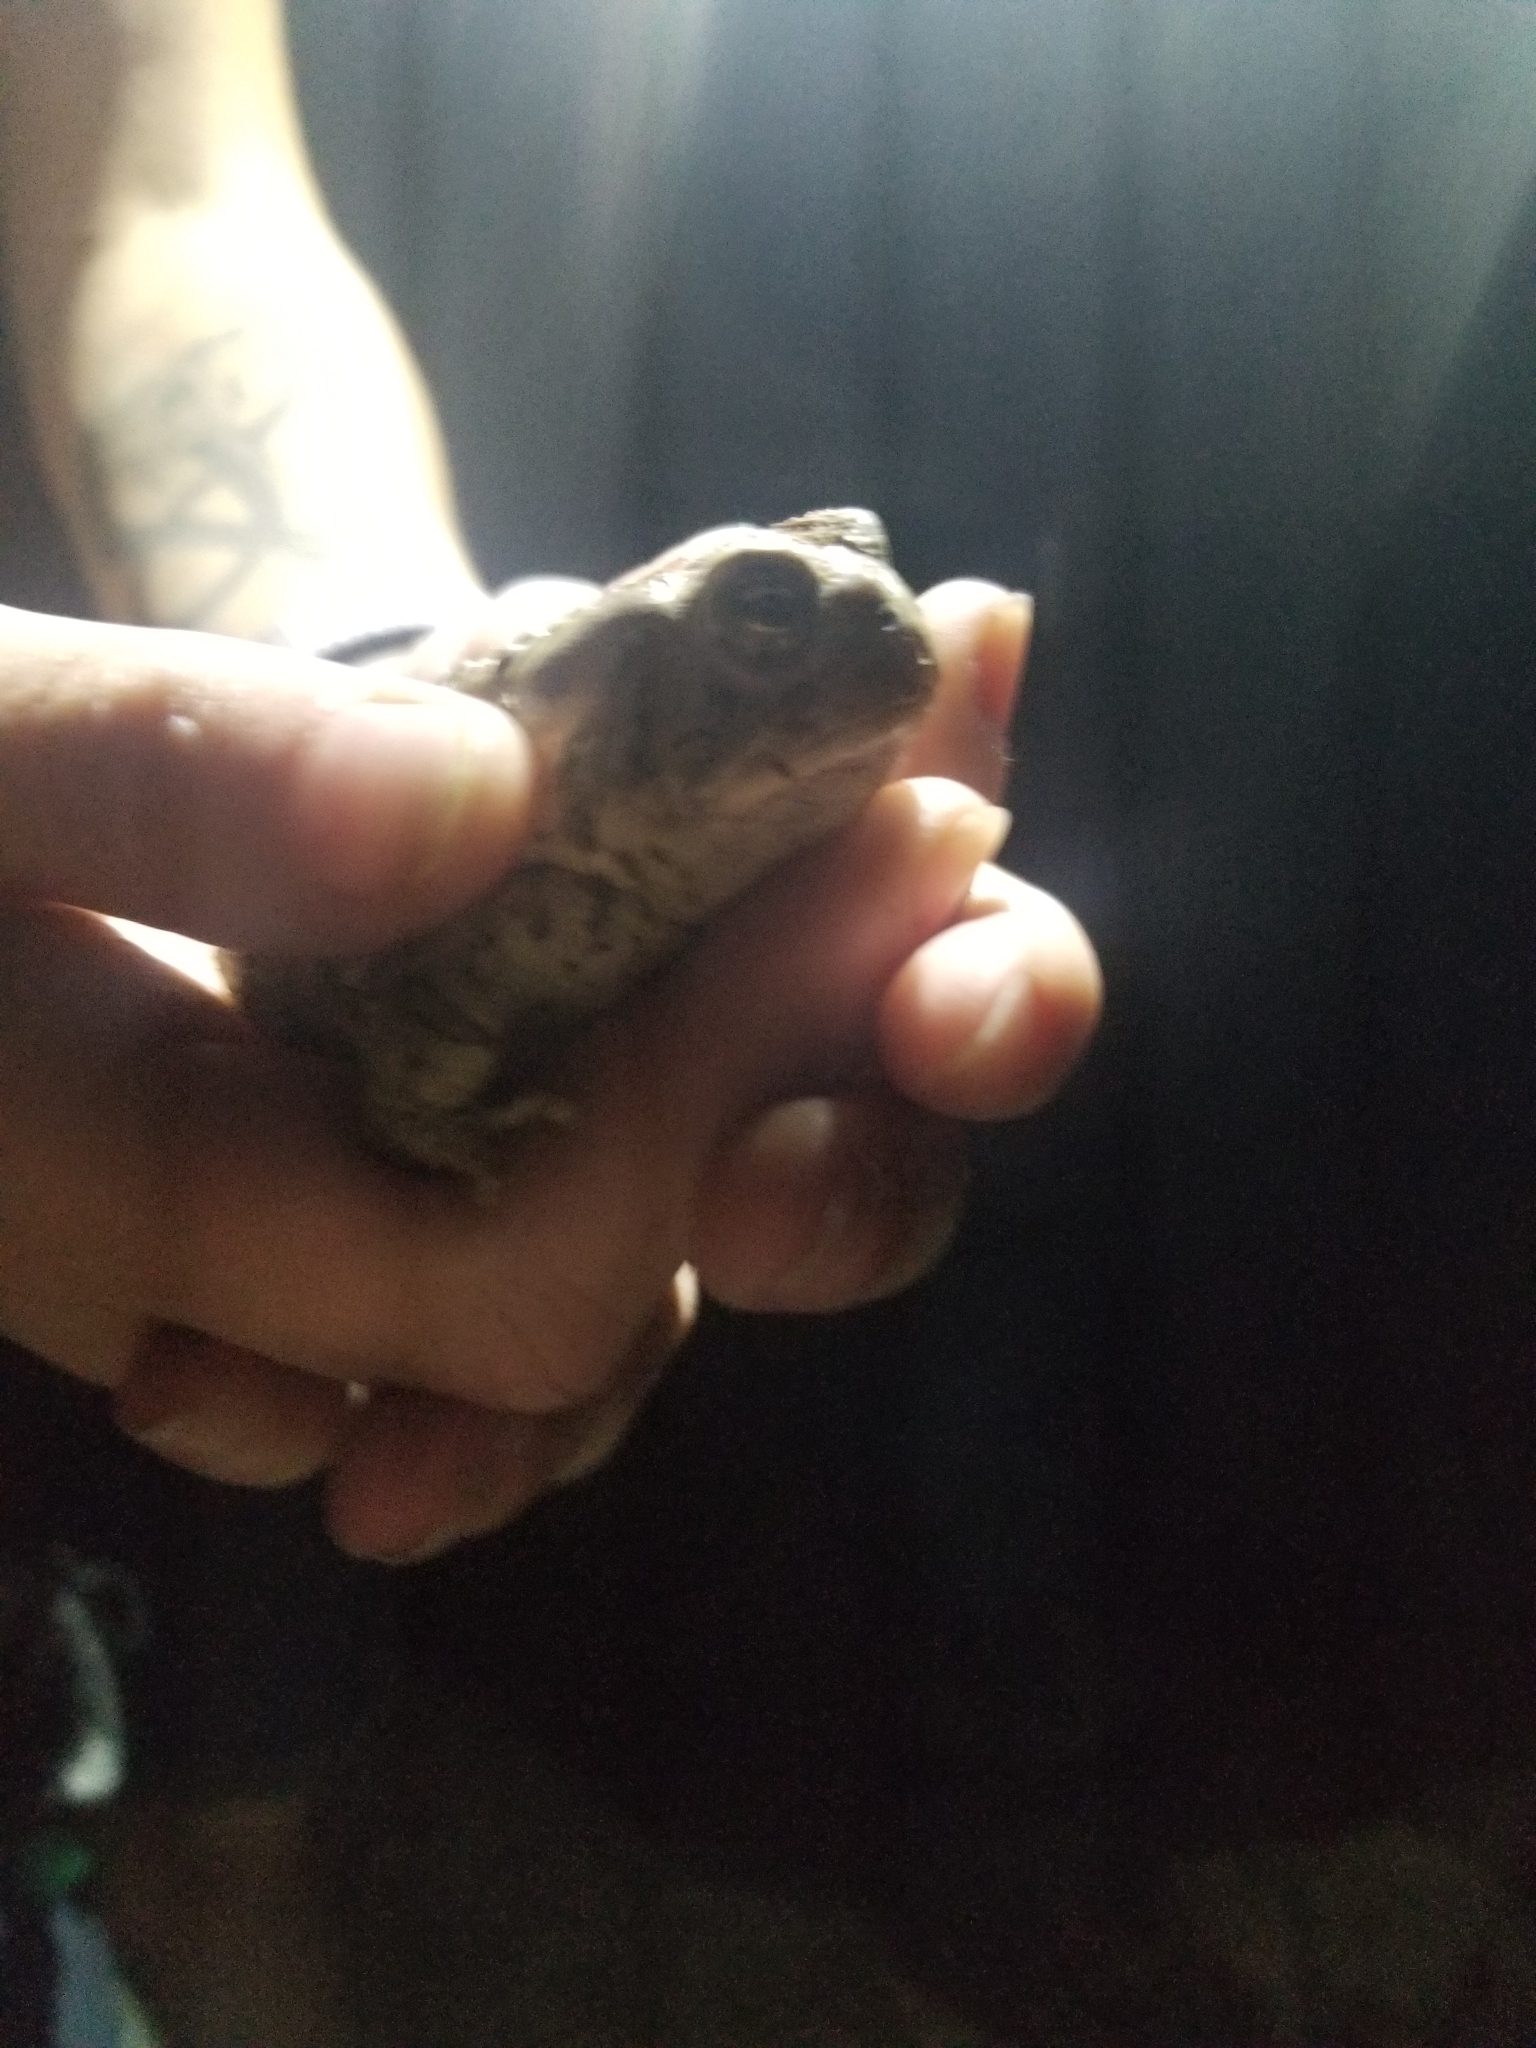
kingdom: Animalia
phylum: Chordata
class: Amphibia
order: Anura
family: Bufonidae
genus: Anaxyrus
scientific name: Anaxyrus microscaphus
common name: Arizona toad
